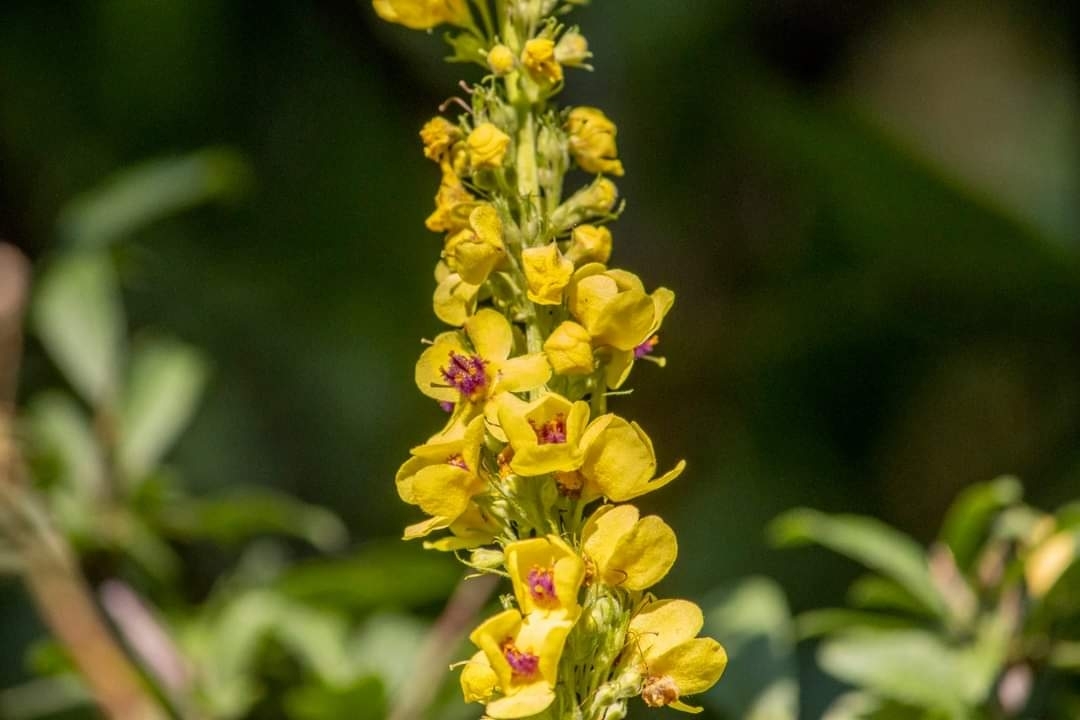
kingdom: Plantae
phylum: Tracheophyta
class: Magnoliopsida
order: Lamiales
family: Scrophulariaceae
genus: Verbascum
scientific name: Verbascum nigrum
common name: Dark mullein
